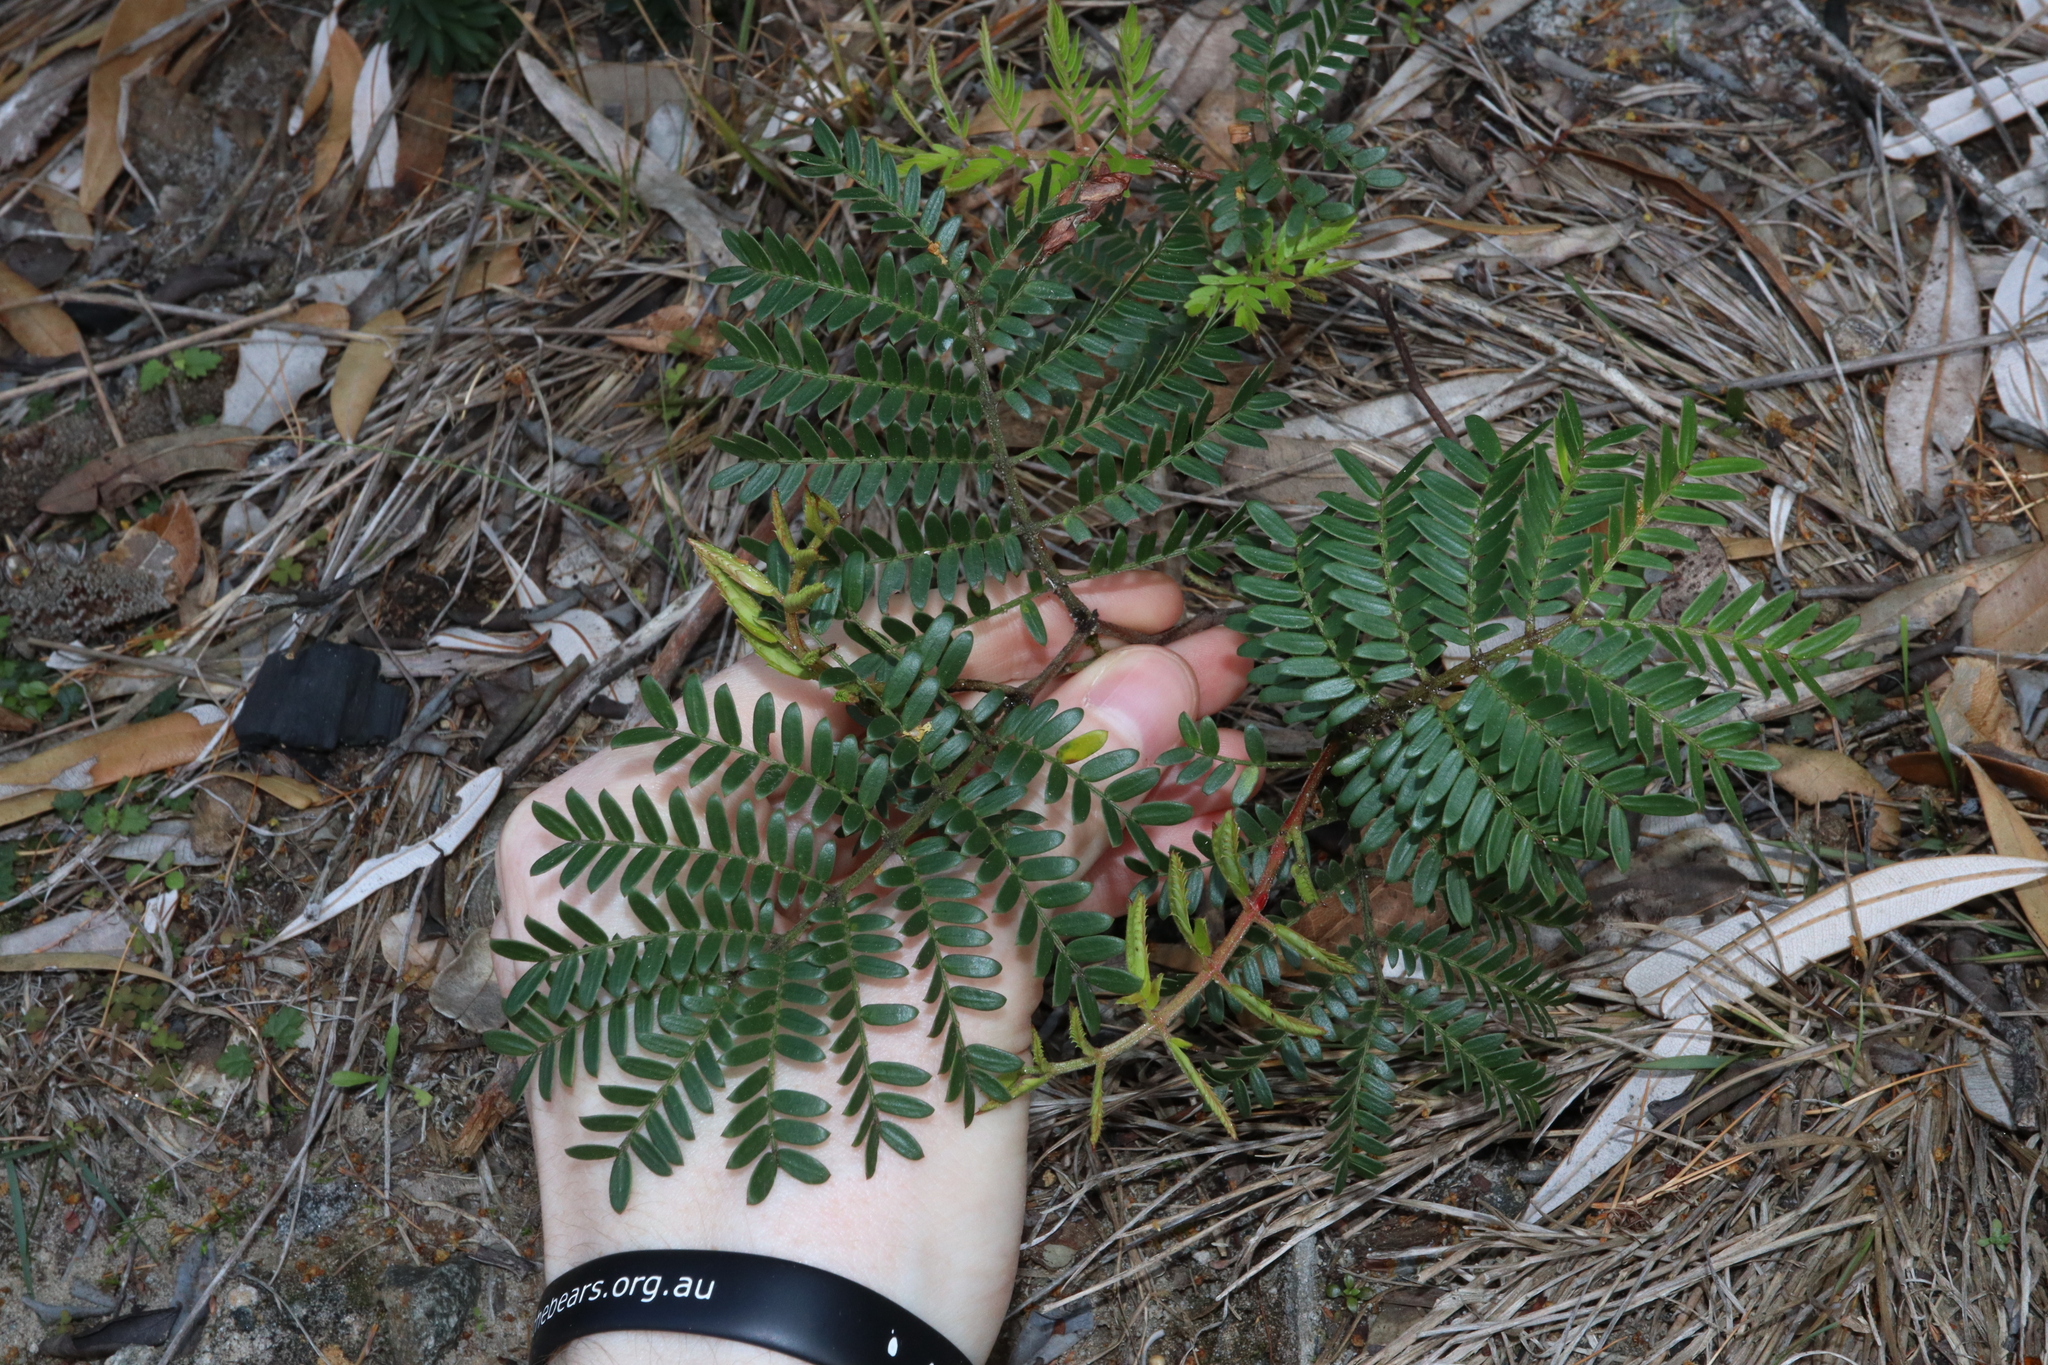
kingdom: Plantae
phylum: Tracheophyta
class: Magnoliopsida
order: Fabales
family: Fabaceae
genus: Acacia
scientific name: Acacia terminalis
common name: Cedar wattle
